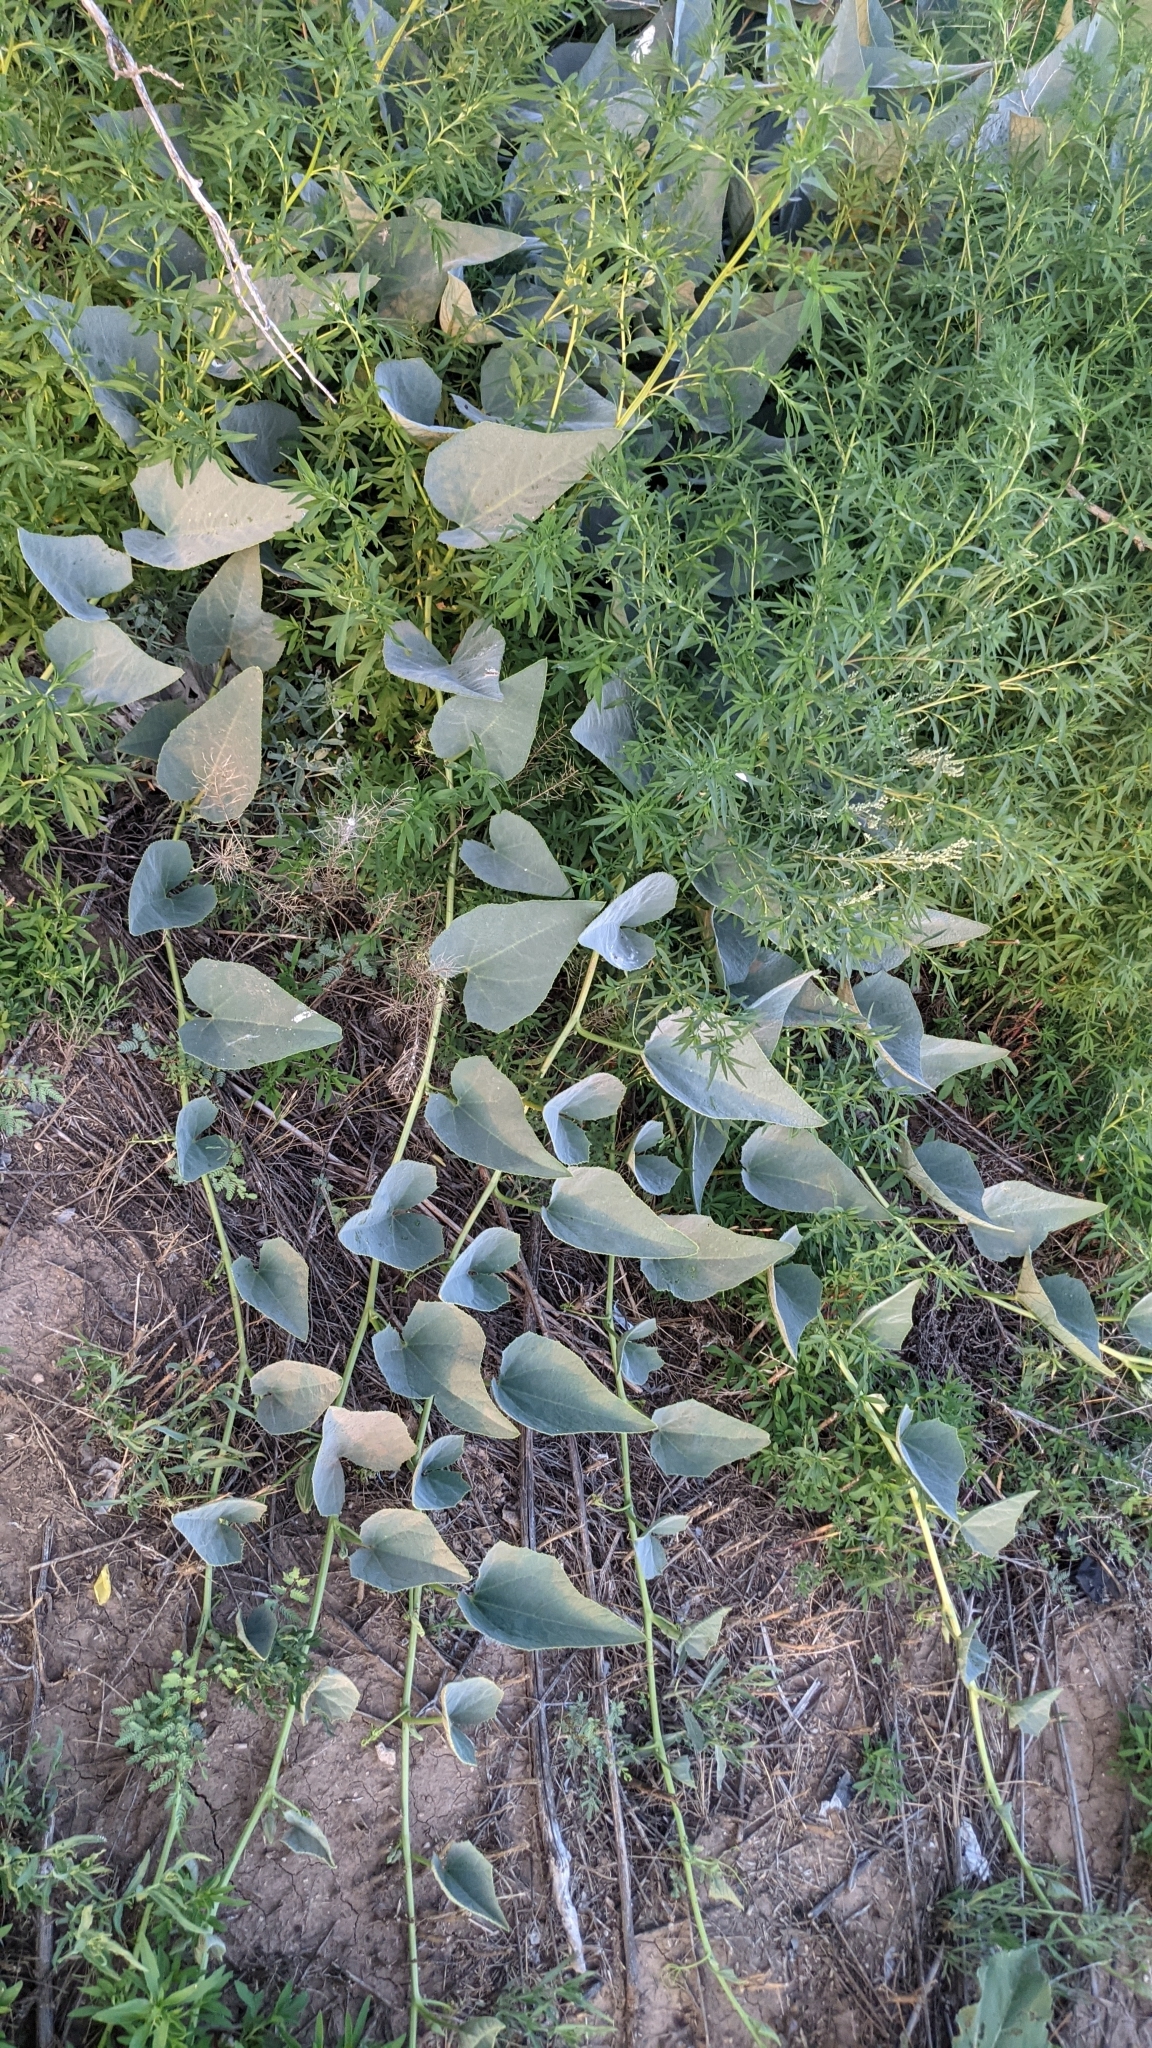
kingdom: Plantae
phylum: Tracheophyta
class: Magnoliopsida
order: Cucurbitales
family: Cucurbitaceae
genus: Cucurbita
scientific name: Cucurbita foetidissima
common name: Buffalo gourd
